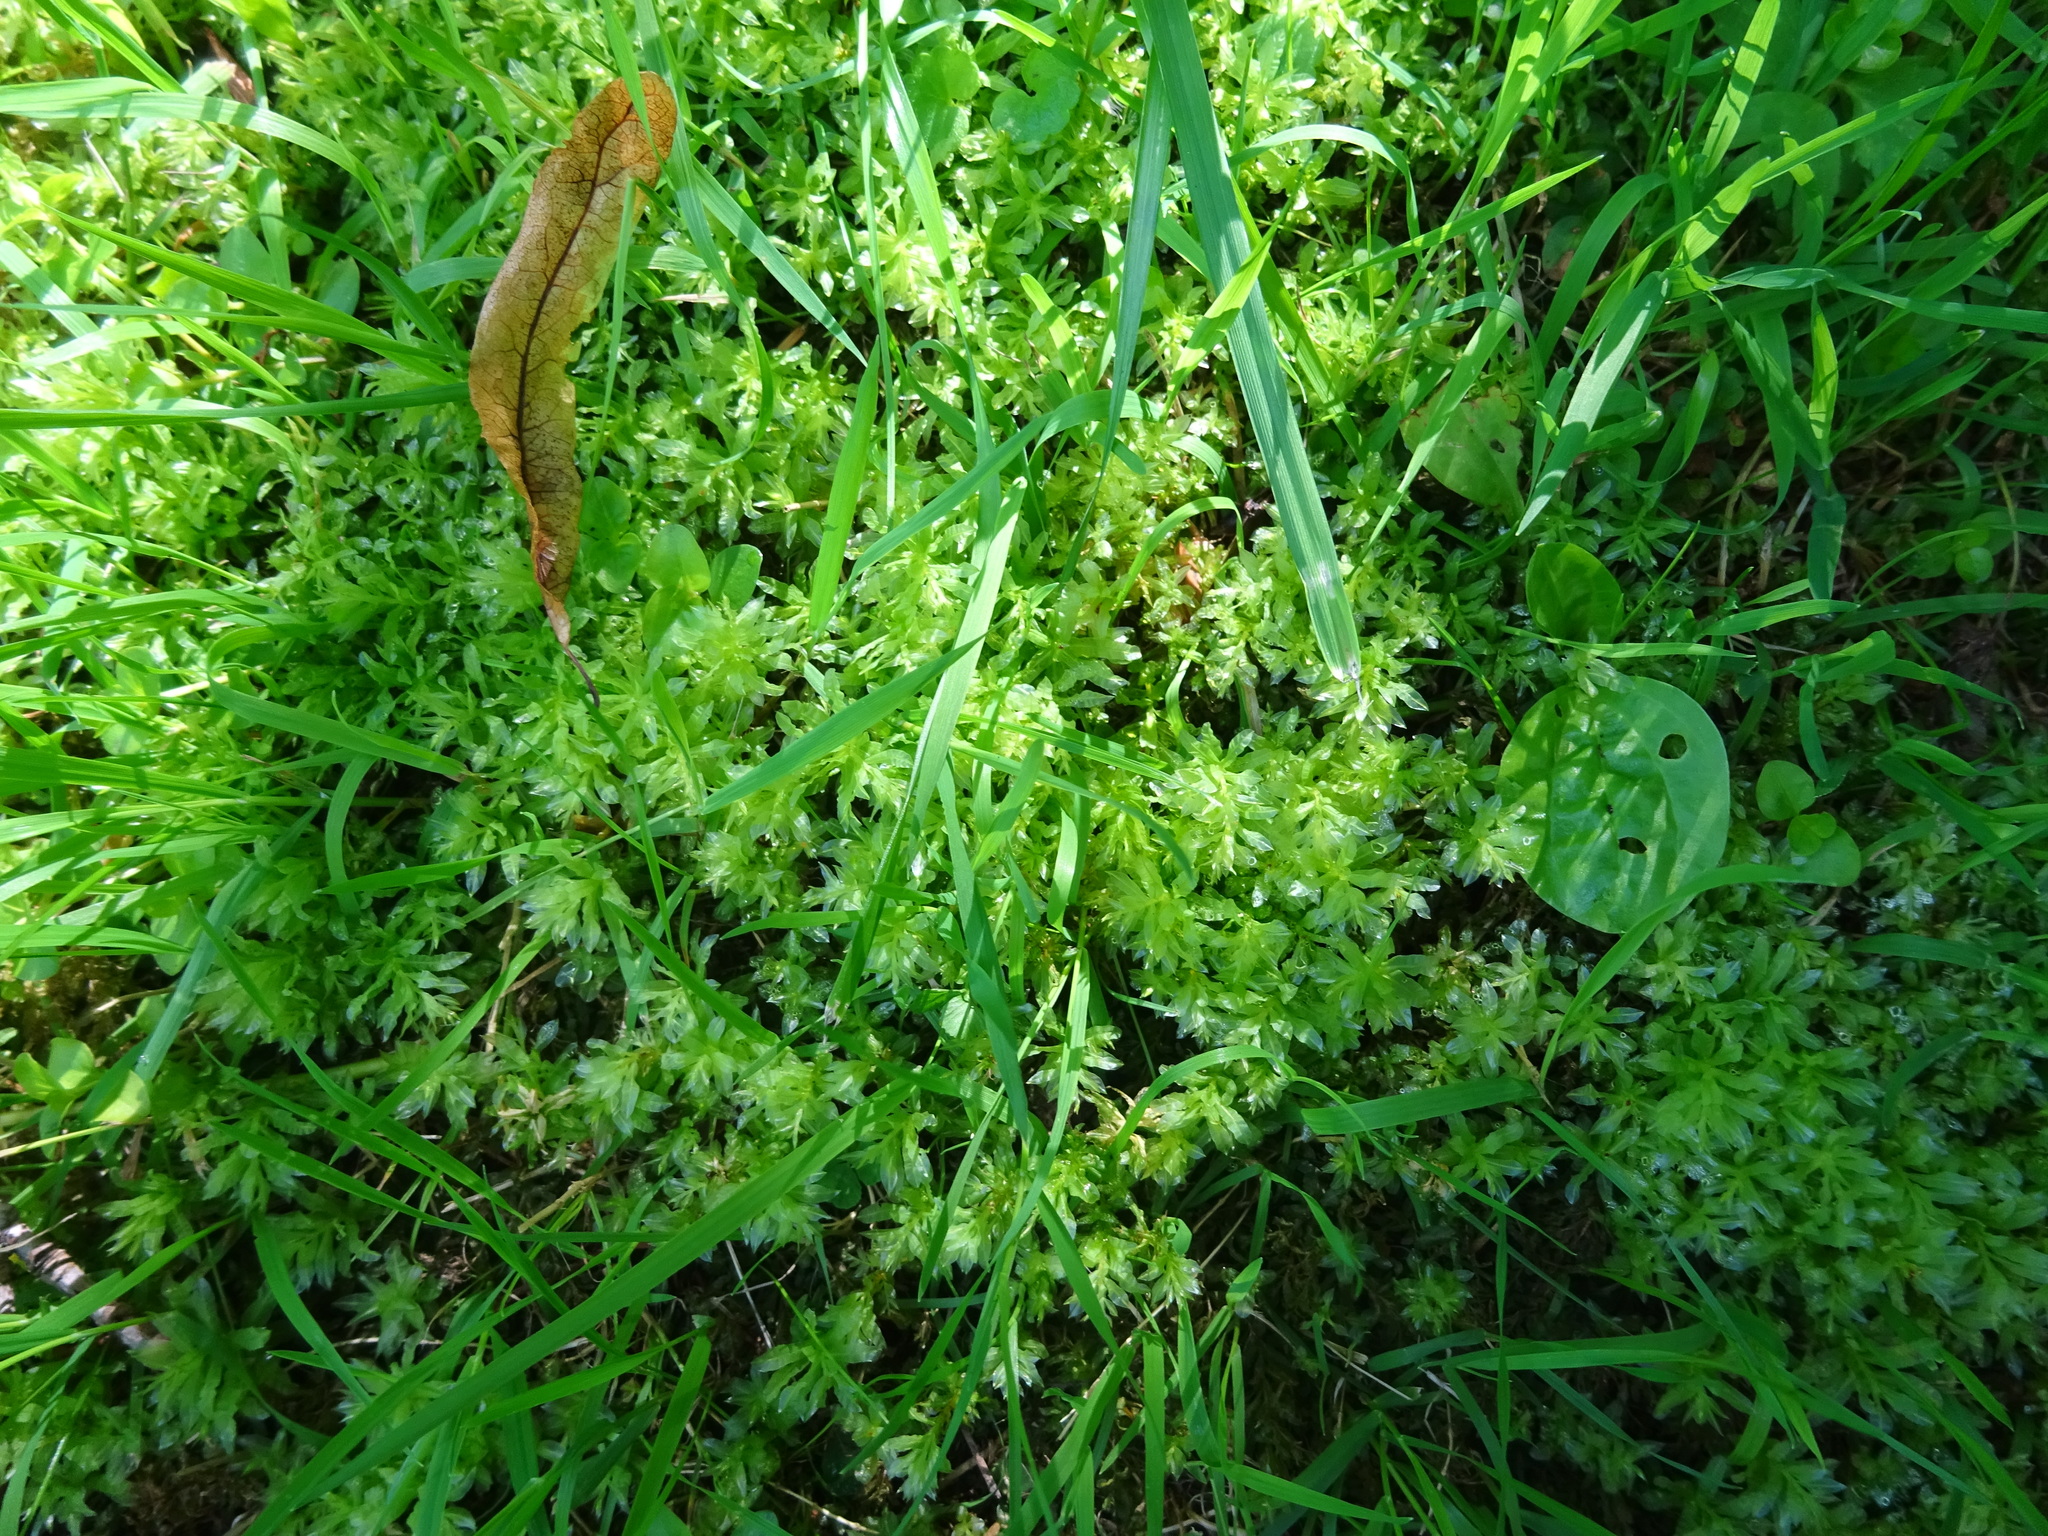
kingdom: Plantae
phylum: Bryophyta
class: Bryopsida
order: Bryales
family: Mniaceae
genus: Plagiomnium
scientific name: Plagiomnium undulatum
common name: Hart's-tongue thyme-moss
